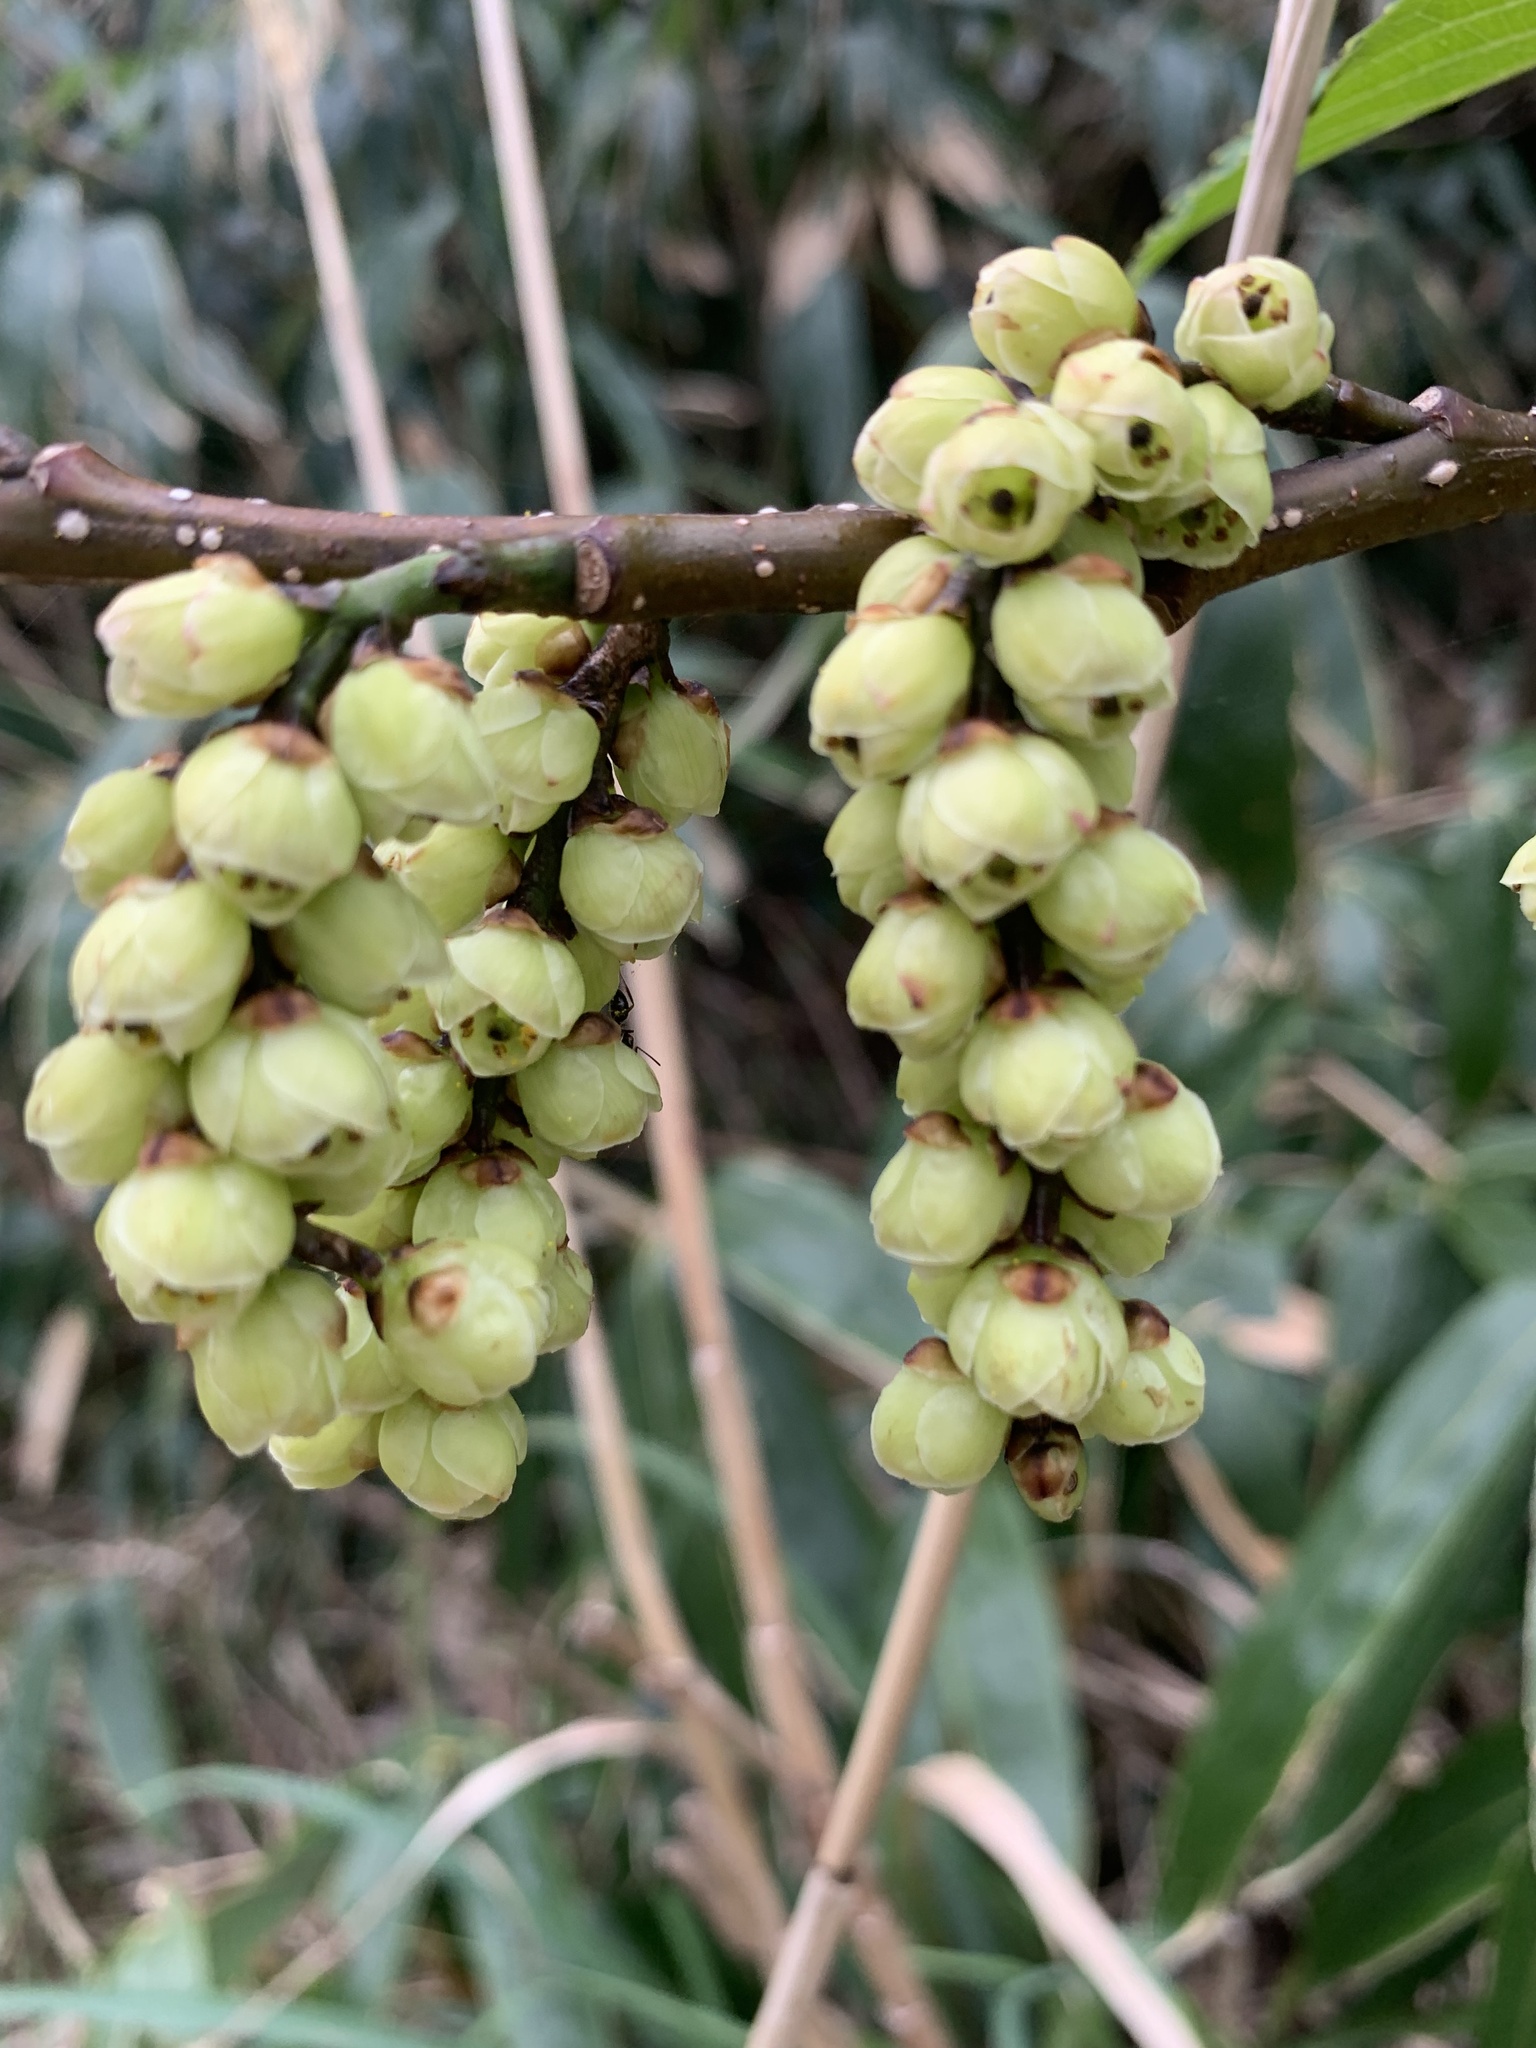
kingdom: Plantae
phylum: Tracheophyta
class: Magnoliopsida
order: Crossosomatales
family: Stachyuraceae
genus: Stachyurus
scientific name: Stachyurus praecox
